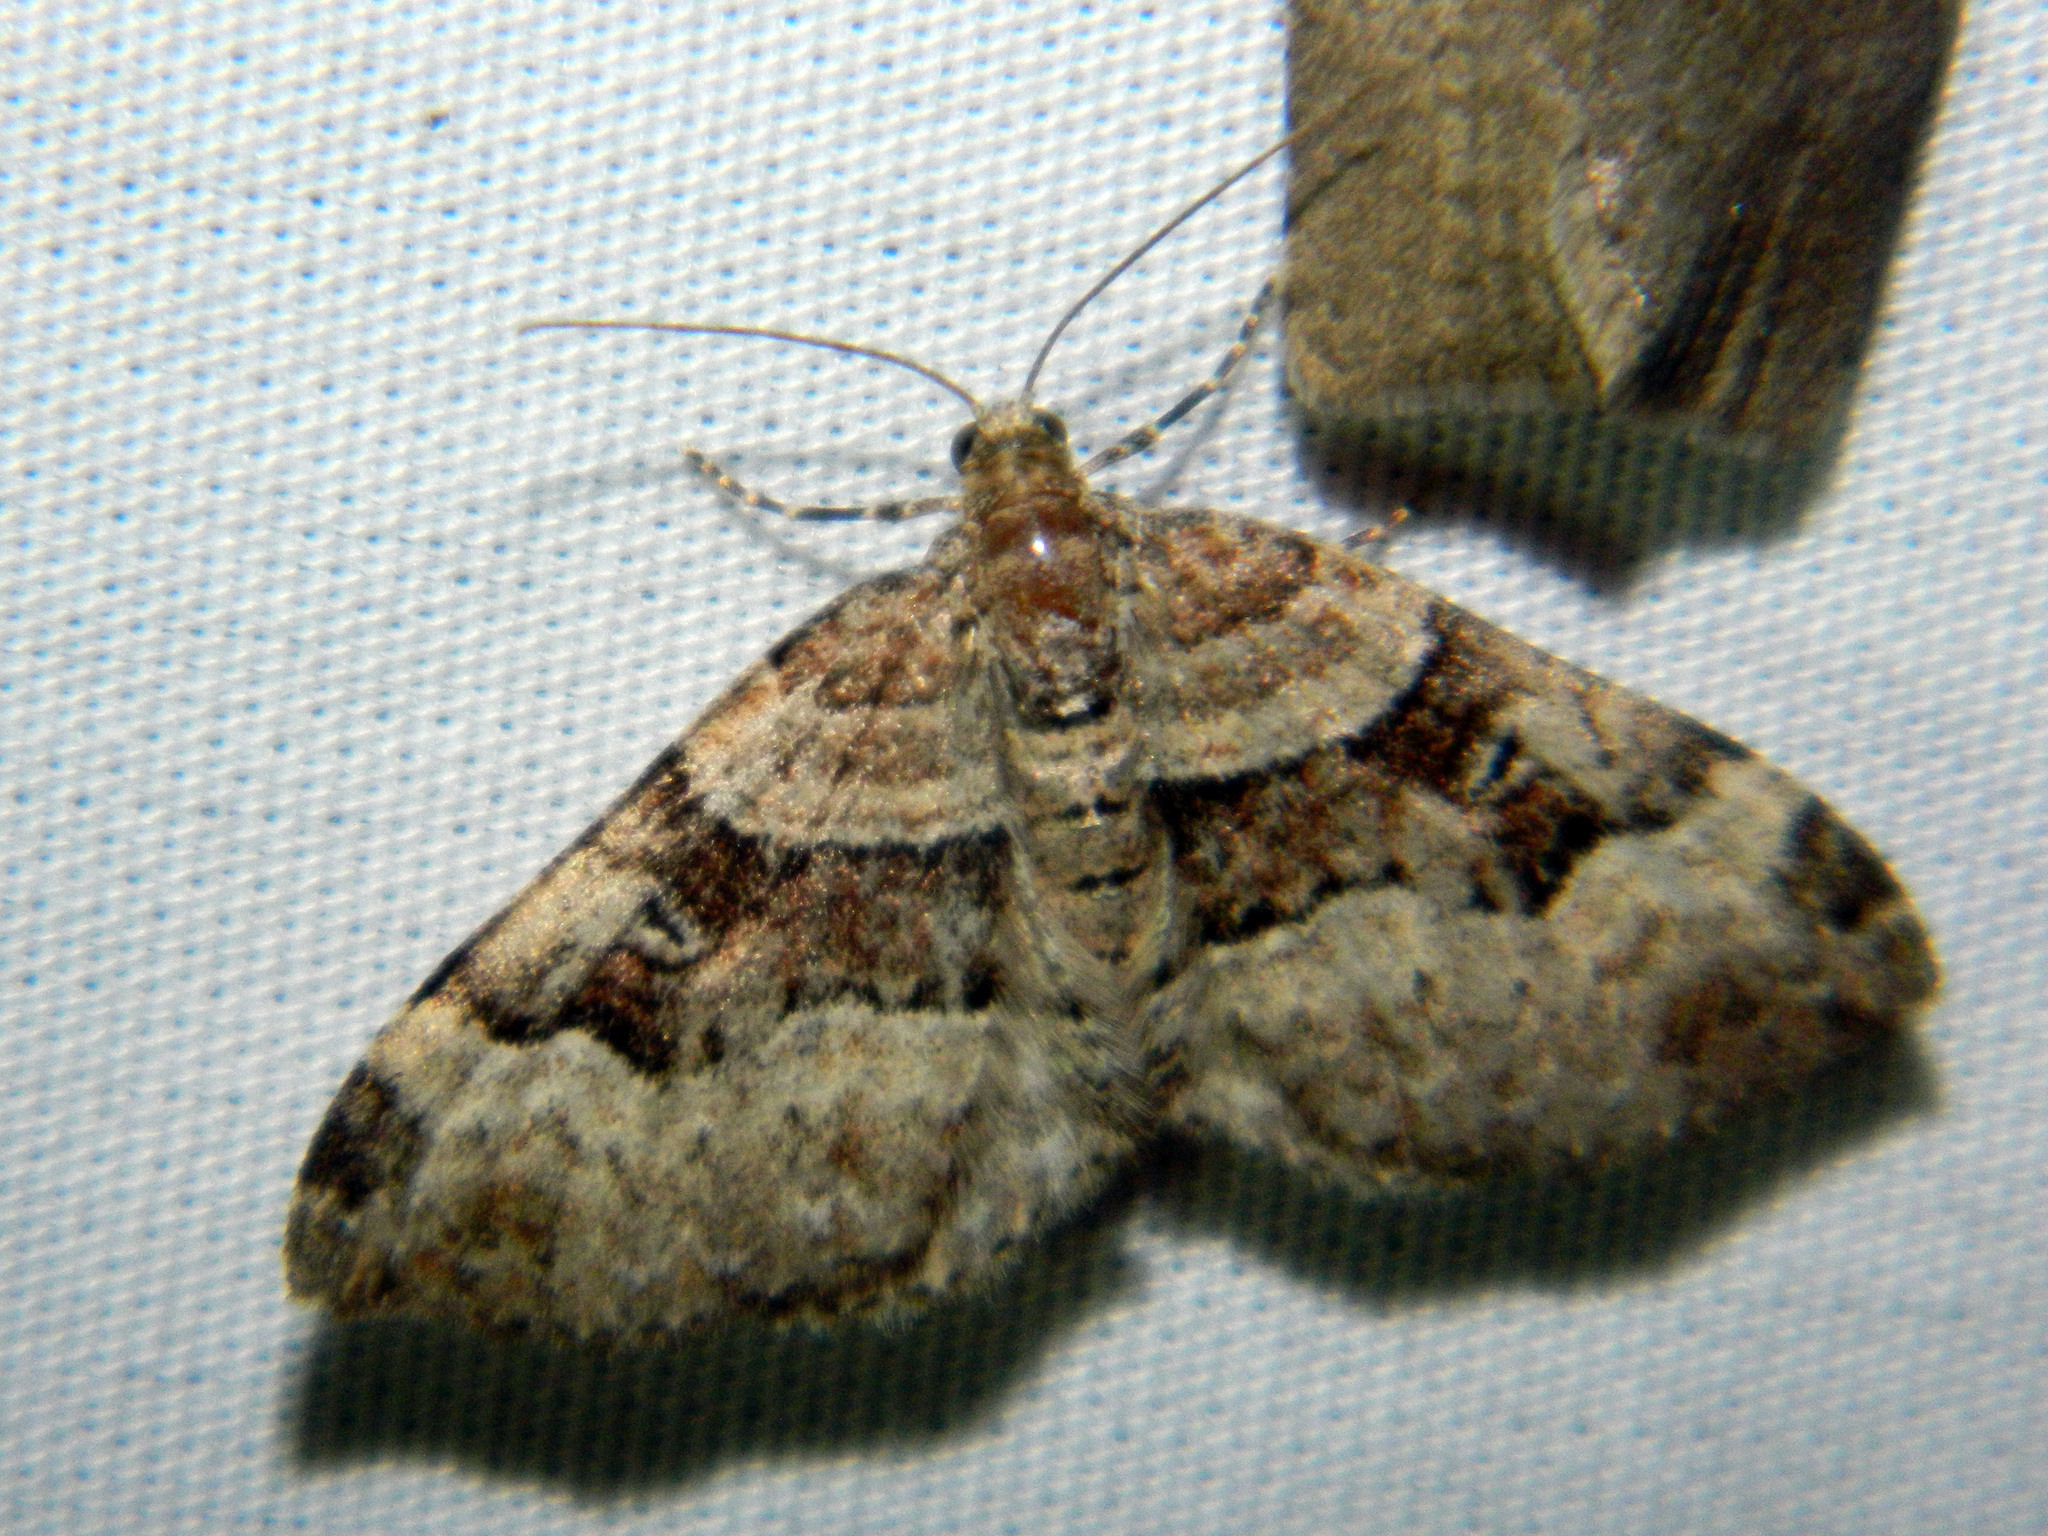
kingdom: Animalia
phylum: Arthropoda
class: Insecta
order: Lepidoptera
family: Geometridae
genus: Xanthorhoe
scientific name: Xanthorhoe lacustrata
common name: Toothed brown carpet
